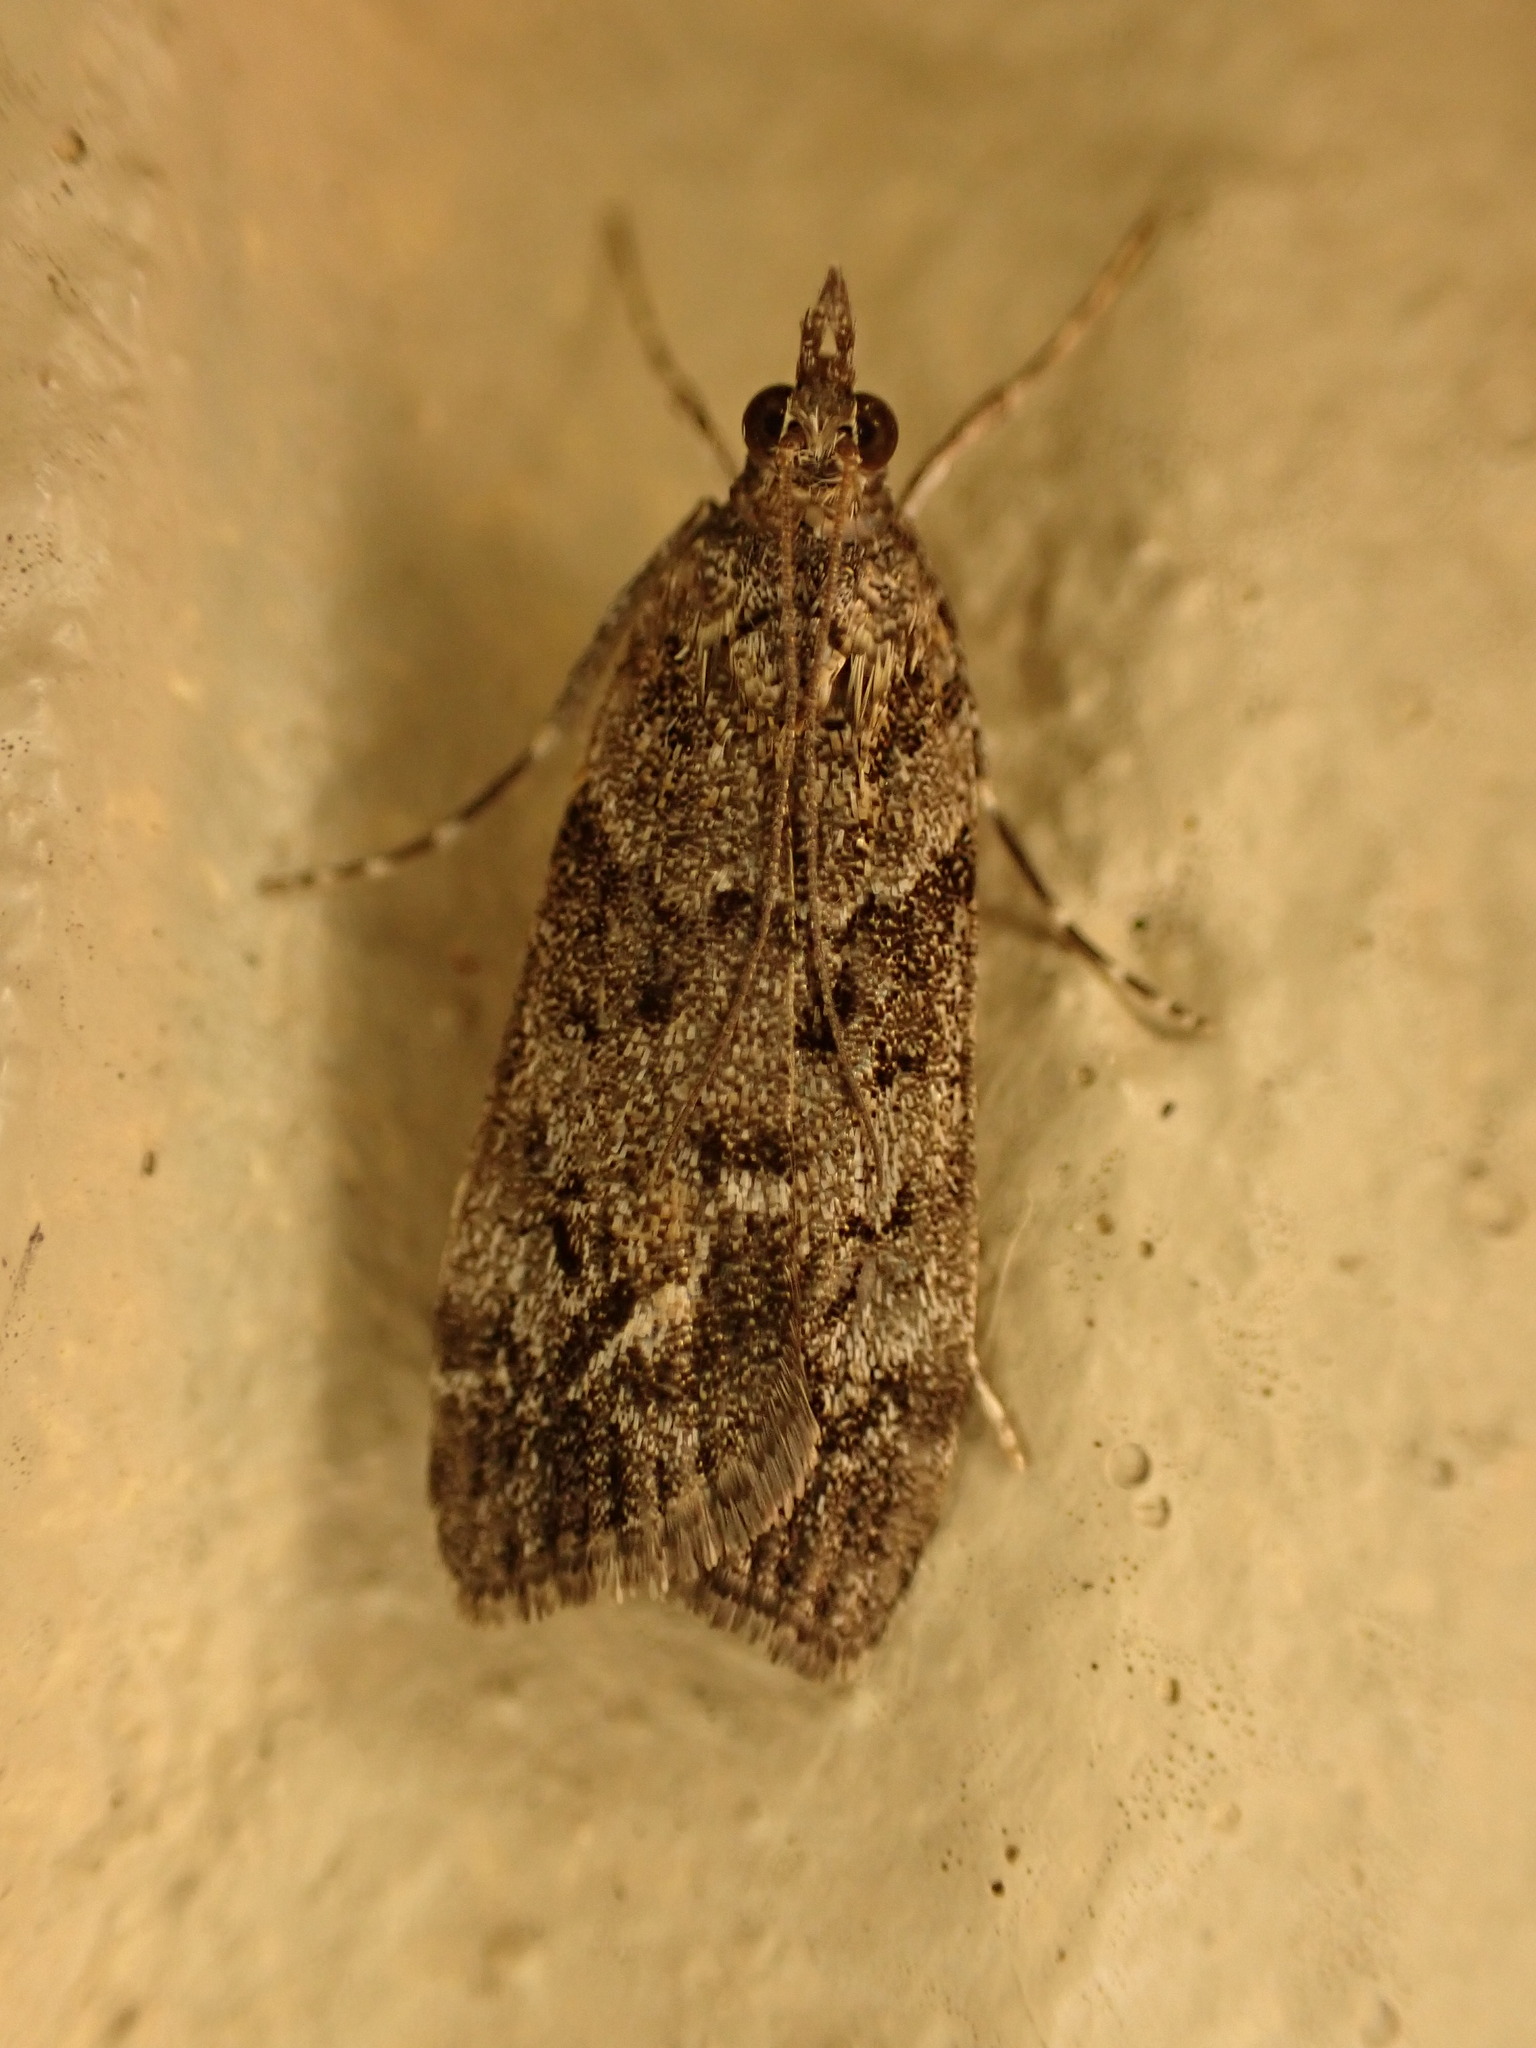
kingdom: Animalia
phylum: Arthropoda
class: Insecta
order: Lepidoptera
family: Crambidae
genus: Eudonia
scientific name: Eudonia submarginalis
